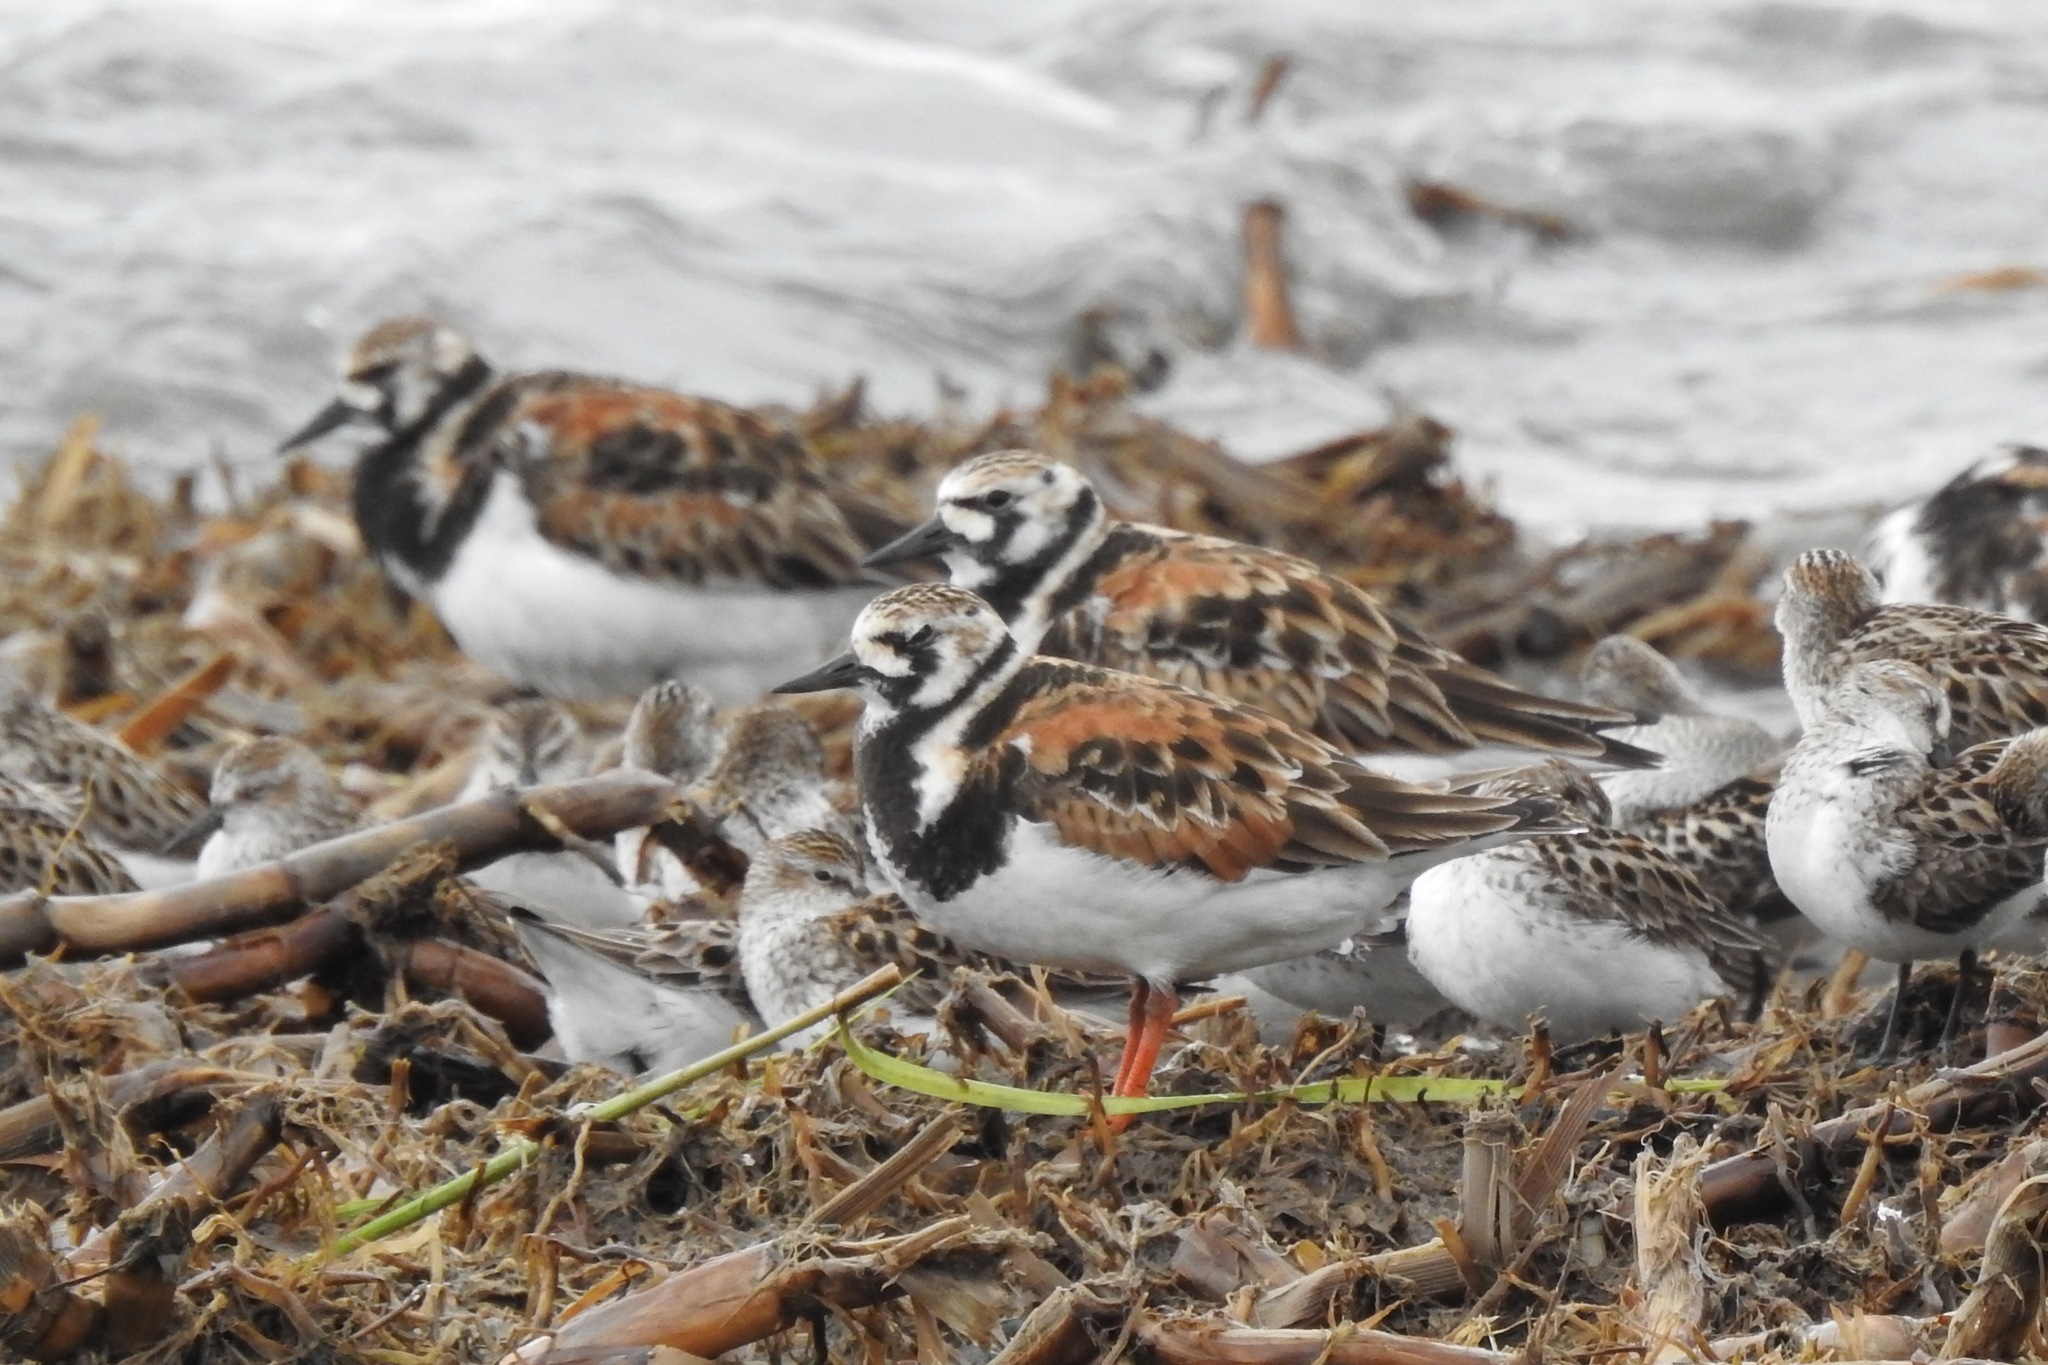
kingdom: Animalia
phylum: Chordata
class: Aves
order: Charadriiformes
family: Scolopacidae
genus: Arenaria
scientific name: Arenaria interpres
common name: Ruddy turnstone
